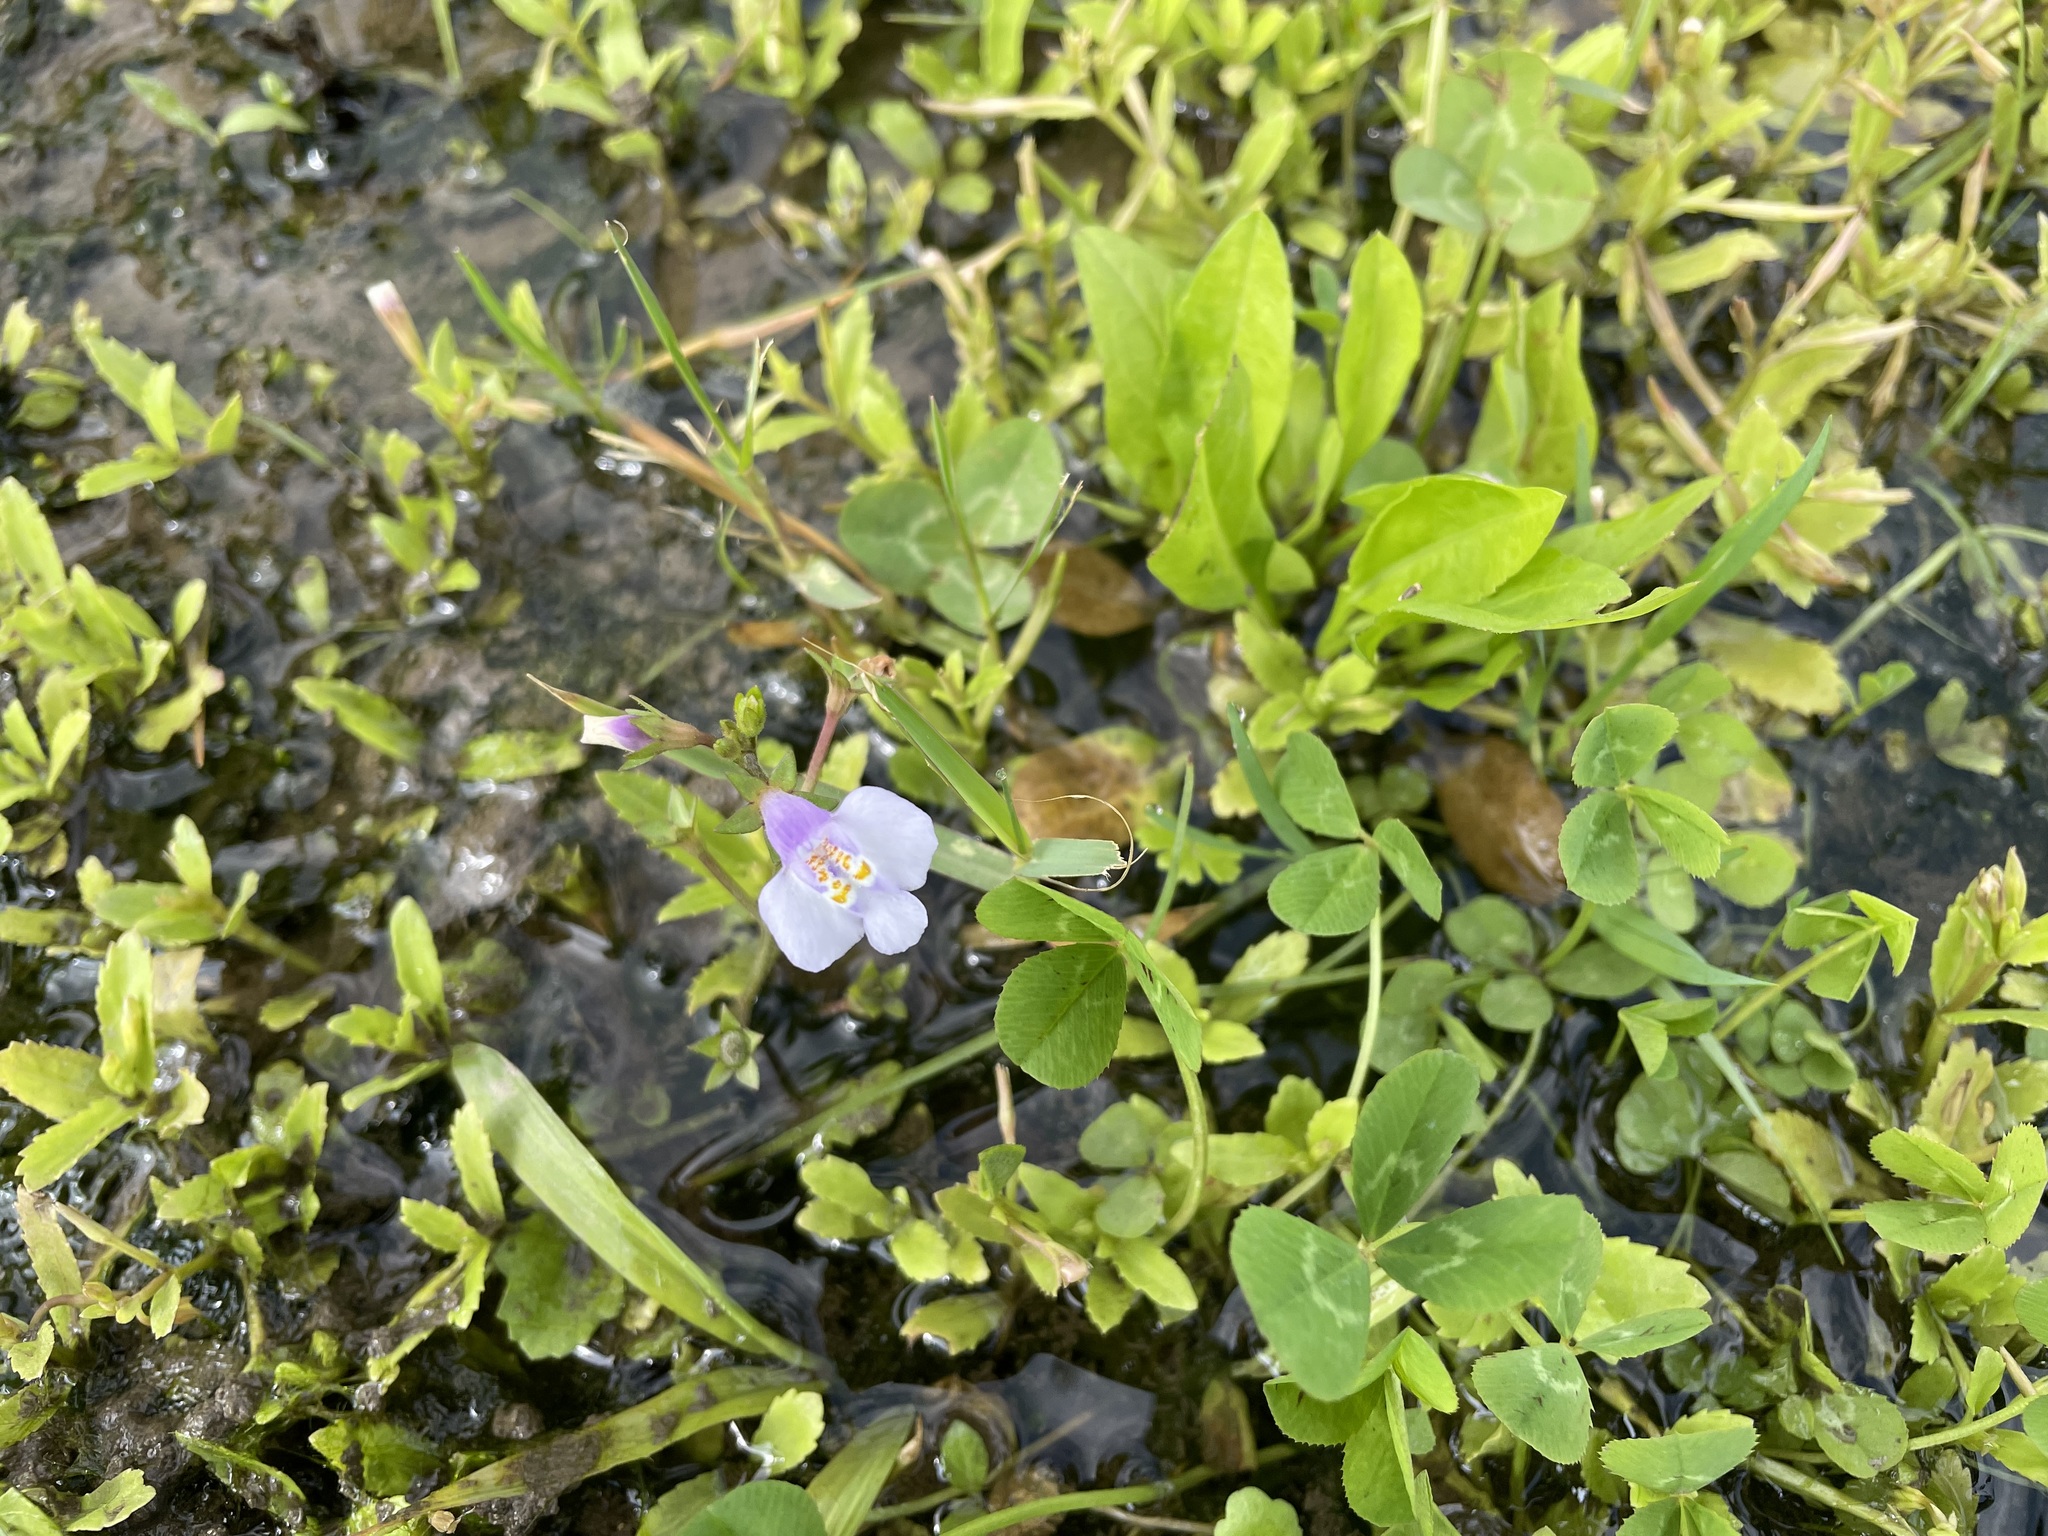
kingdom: Plantae
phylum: Tracheophyta
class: Magnoliopsida
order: Lamiales
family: Mazaceae
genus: Mazus
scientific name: Mazus pumilus
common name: Japanese mazus
